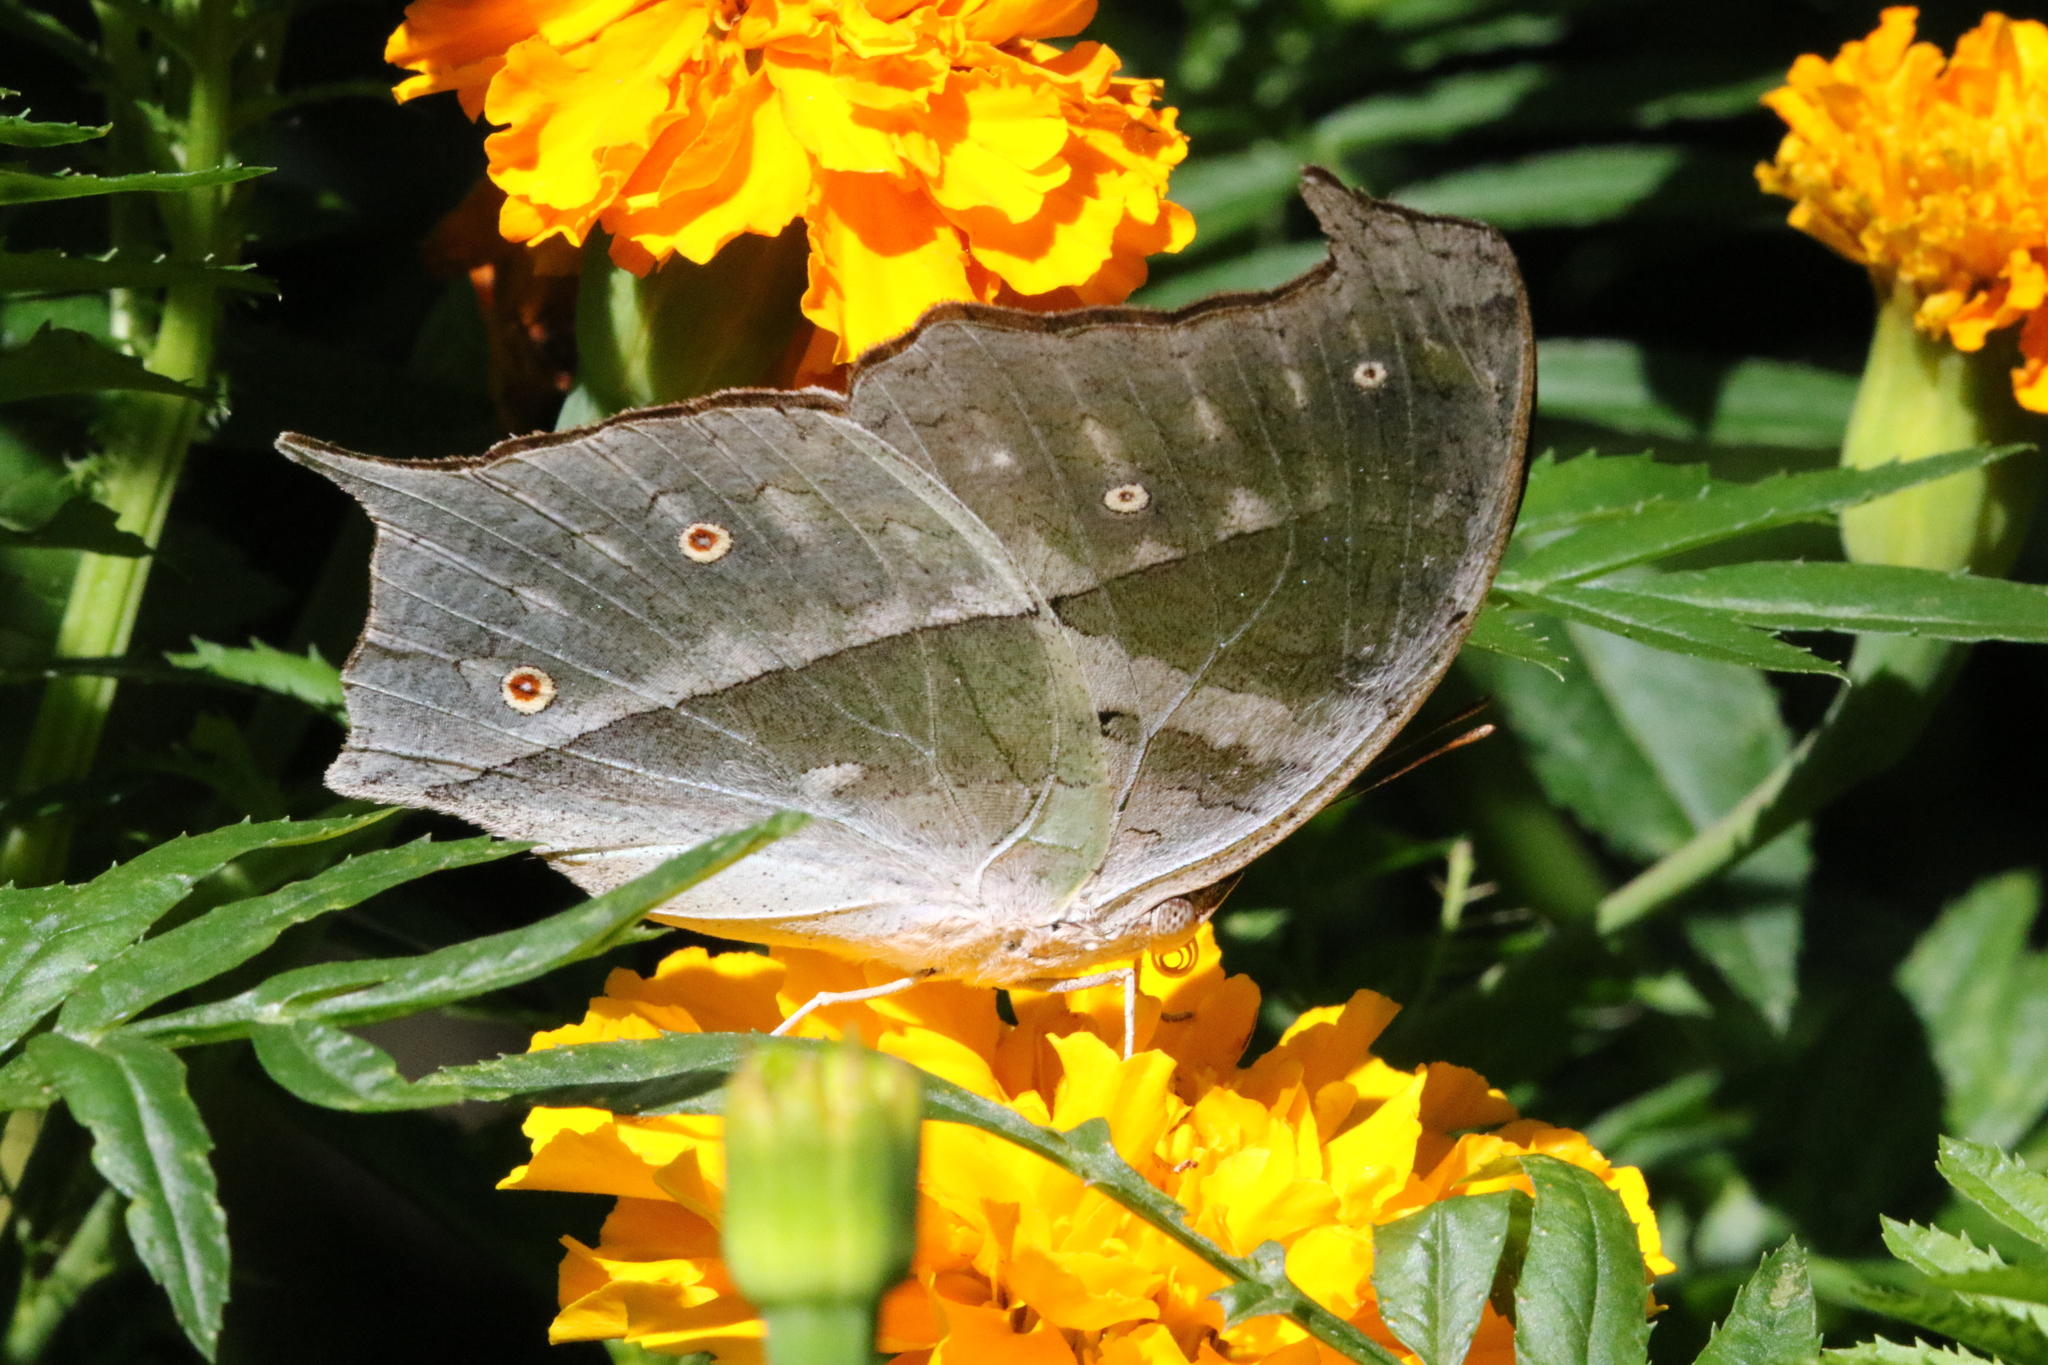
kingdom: Animalia
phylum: Arthropoda
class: Insecta
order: Lepidoptera
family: Nymphalidae
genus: Salamis
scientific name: Salamis Protogoniomorpha parhassus
